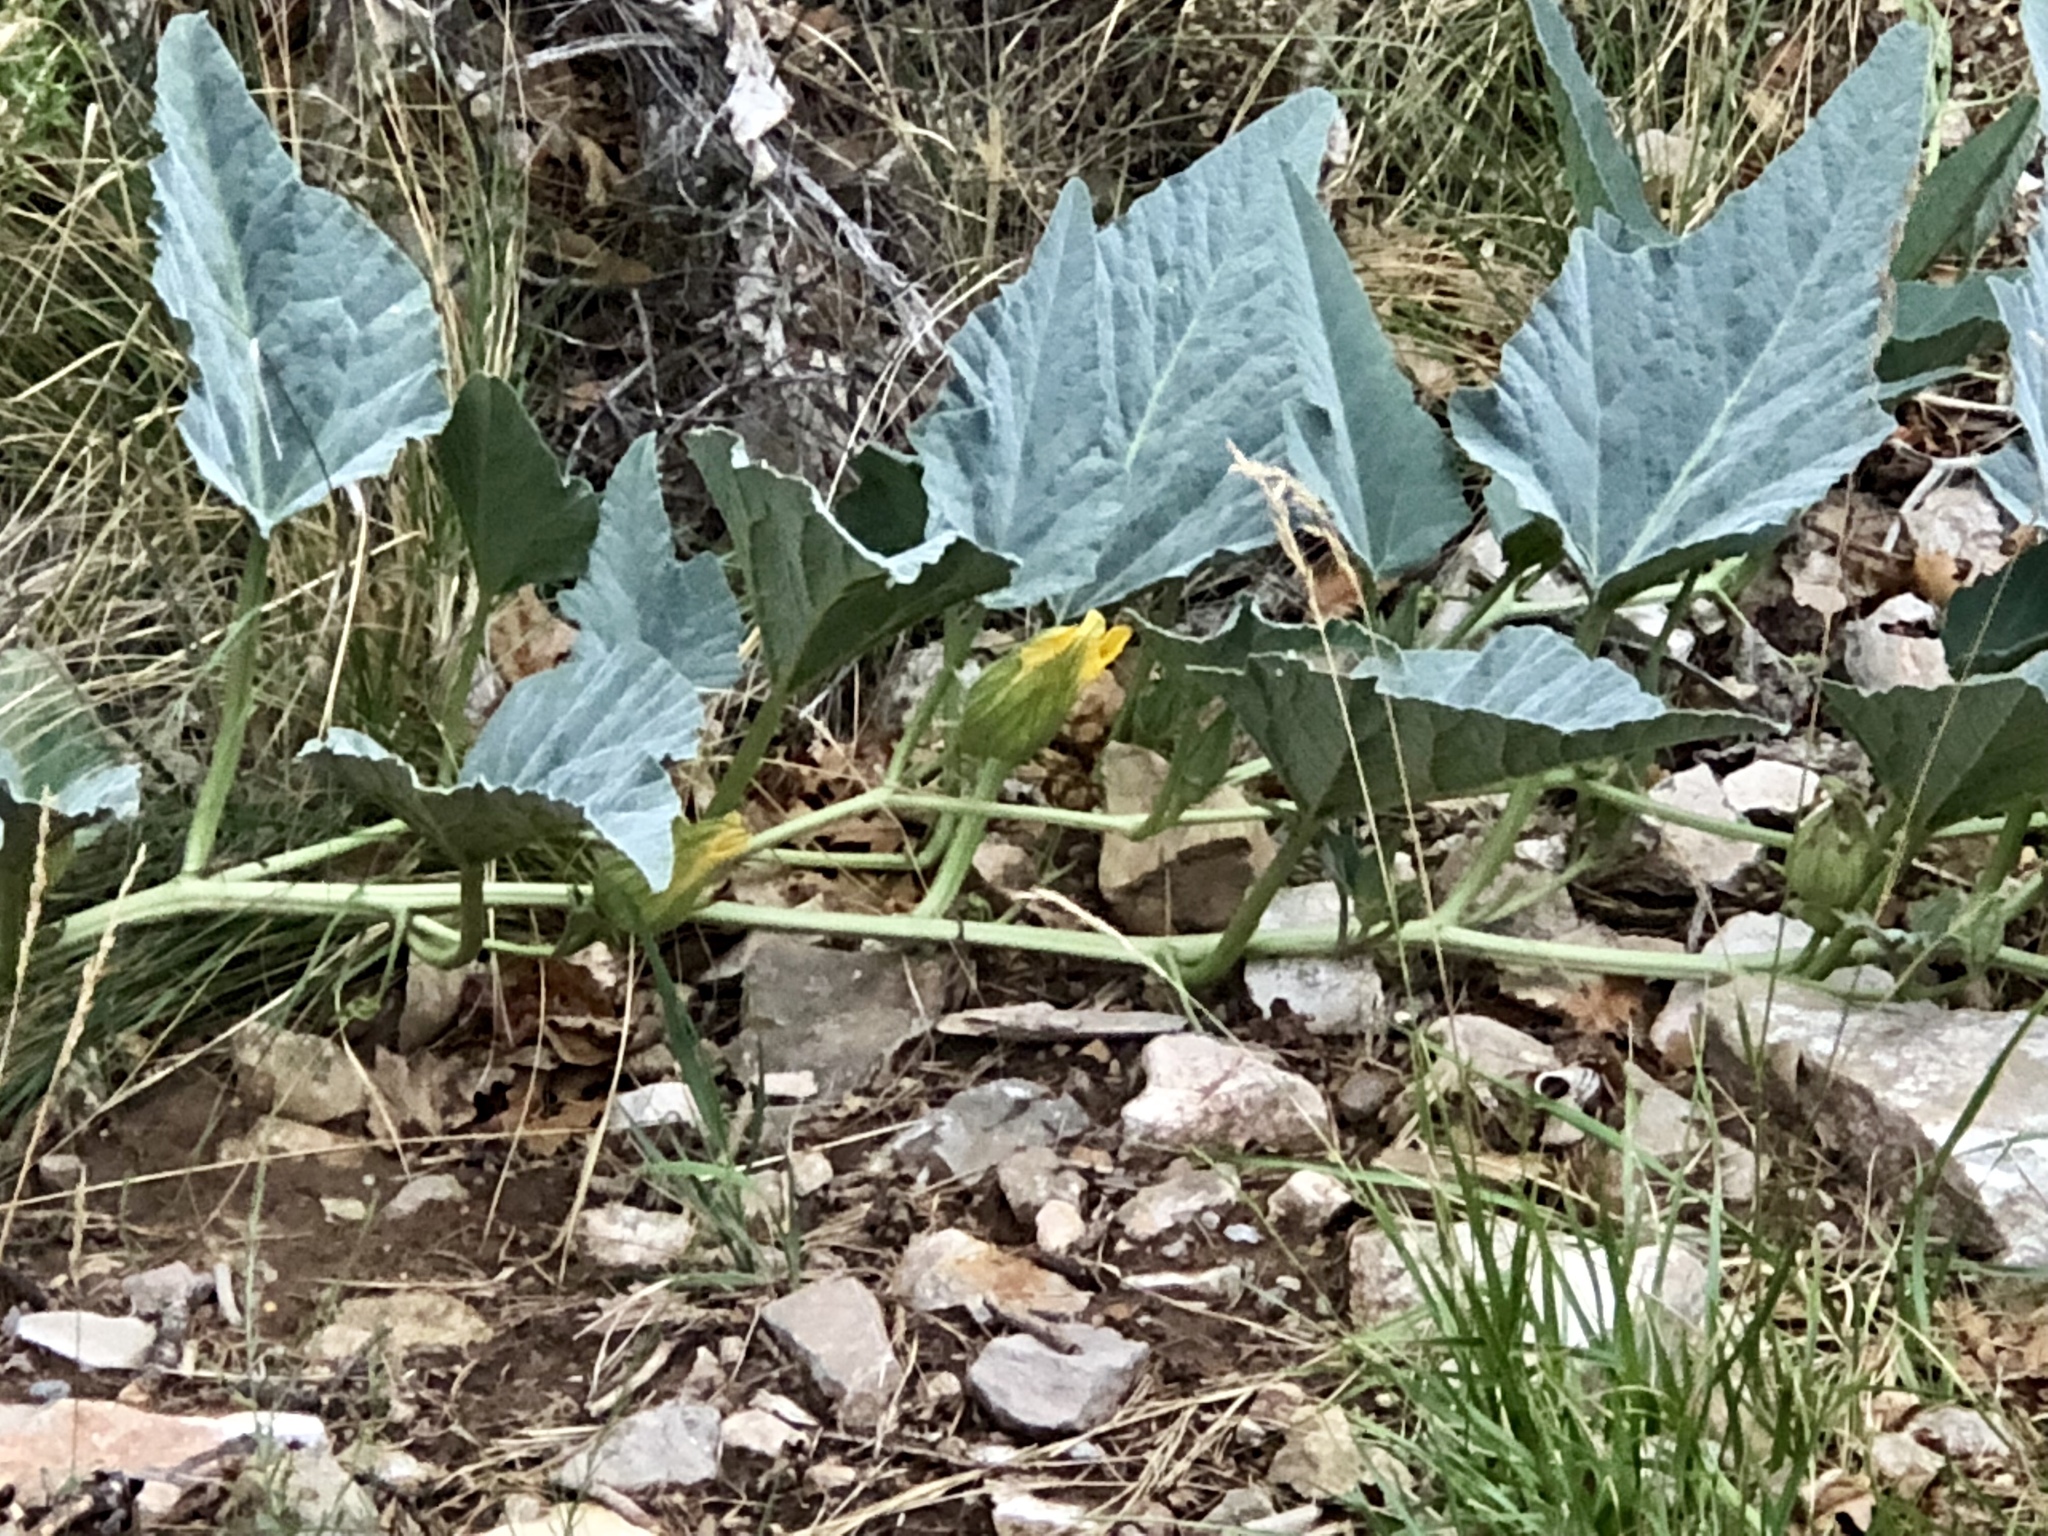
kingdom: Plantae
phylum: Tracheophyta
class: Magnoliopsida
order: Cucurbitales
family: Cucurbitaceae
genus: Cucurbita
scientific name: Cucurbita foetidissima
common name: Buffalo gourd
